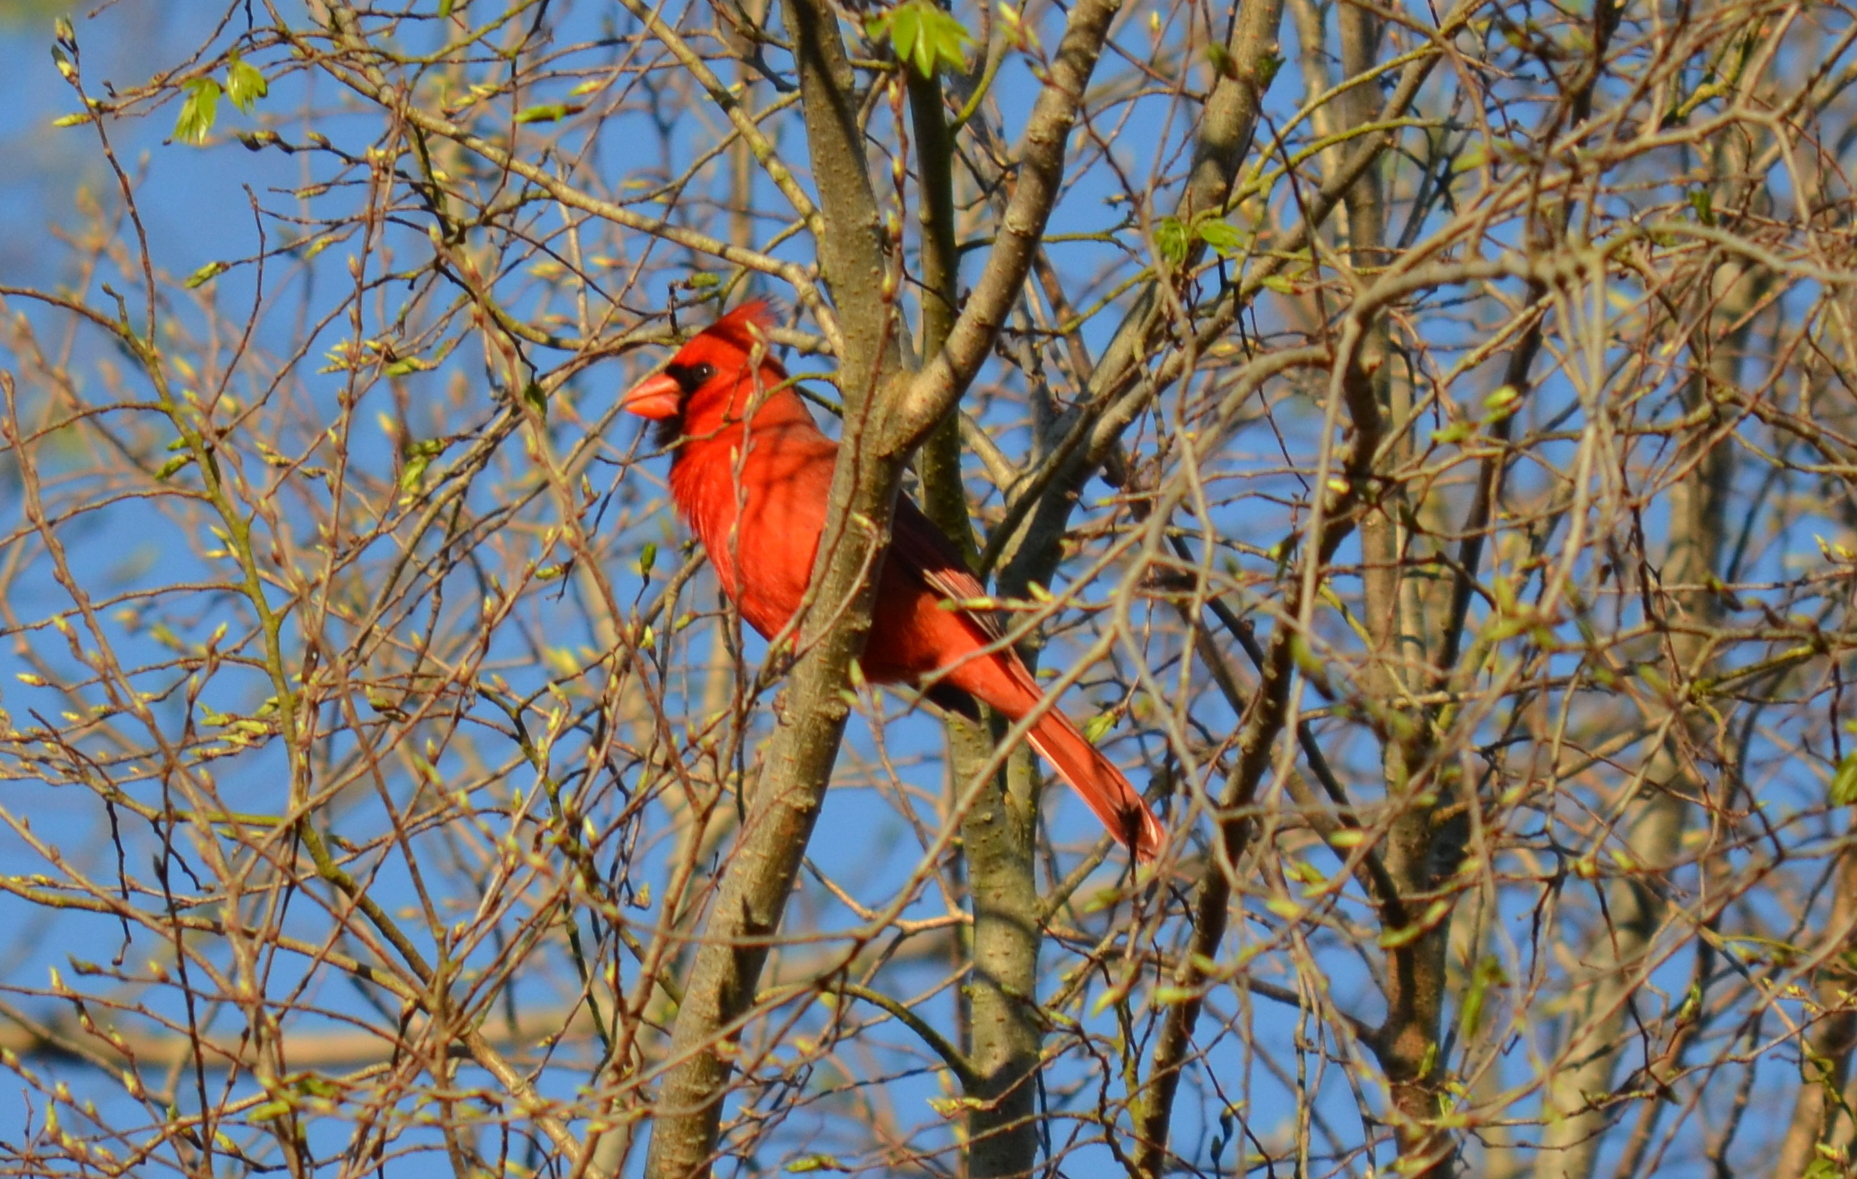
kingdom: Animalia
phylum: Chordata
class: Aves
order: Passeriformes
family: Cardinalidae
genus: Cardinalis
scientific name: Cardinalis cardinalis
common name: Northern cardinal
